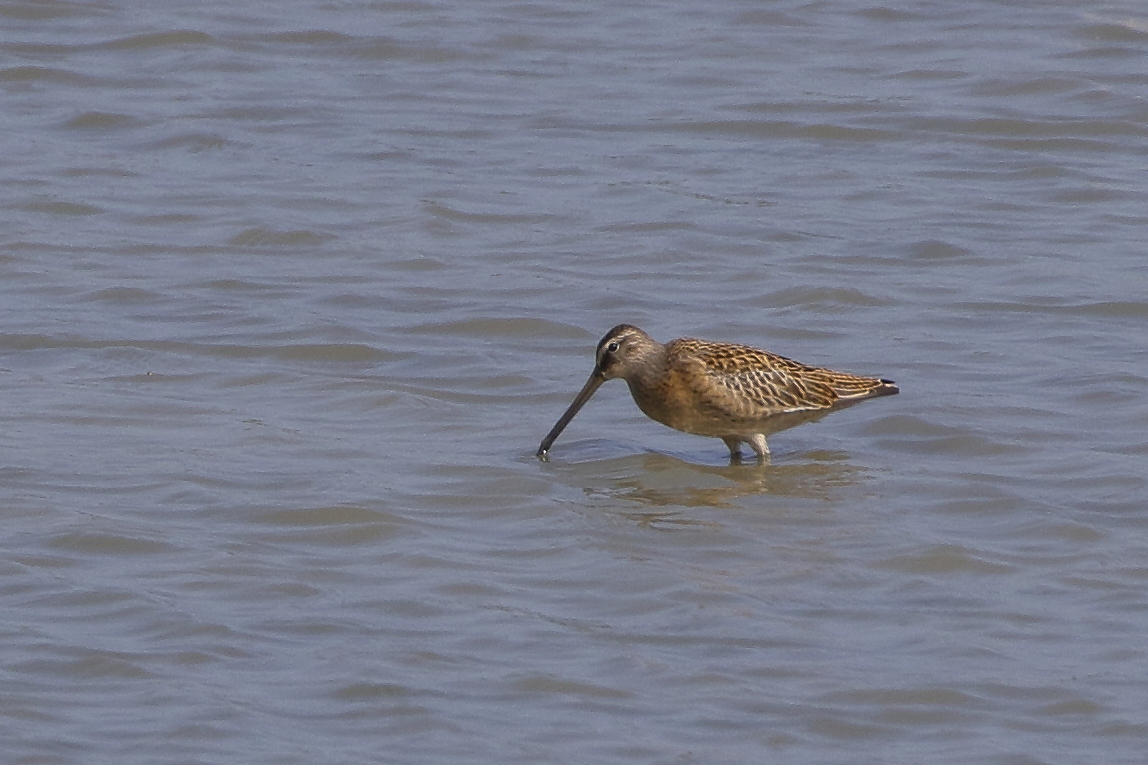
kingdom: Animalia
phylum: Chordata
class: Aves
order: Charadriiformes
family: Scolopacidae
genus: Limnodromus
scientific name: Limnodromus griseus
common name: Short-billed dowitcher
